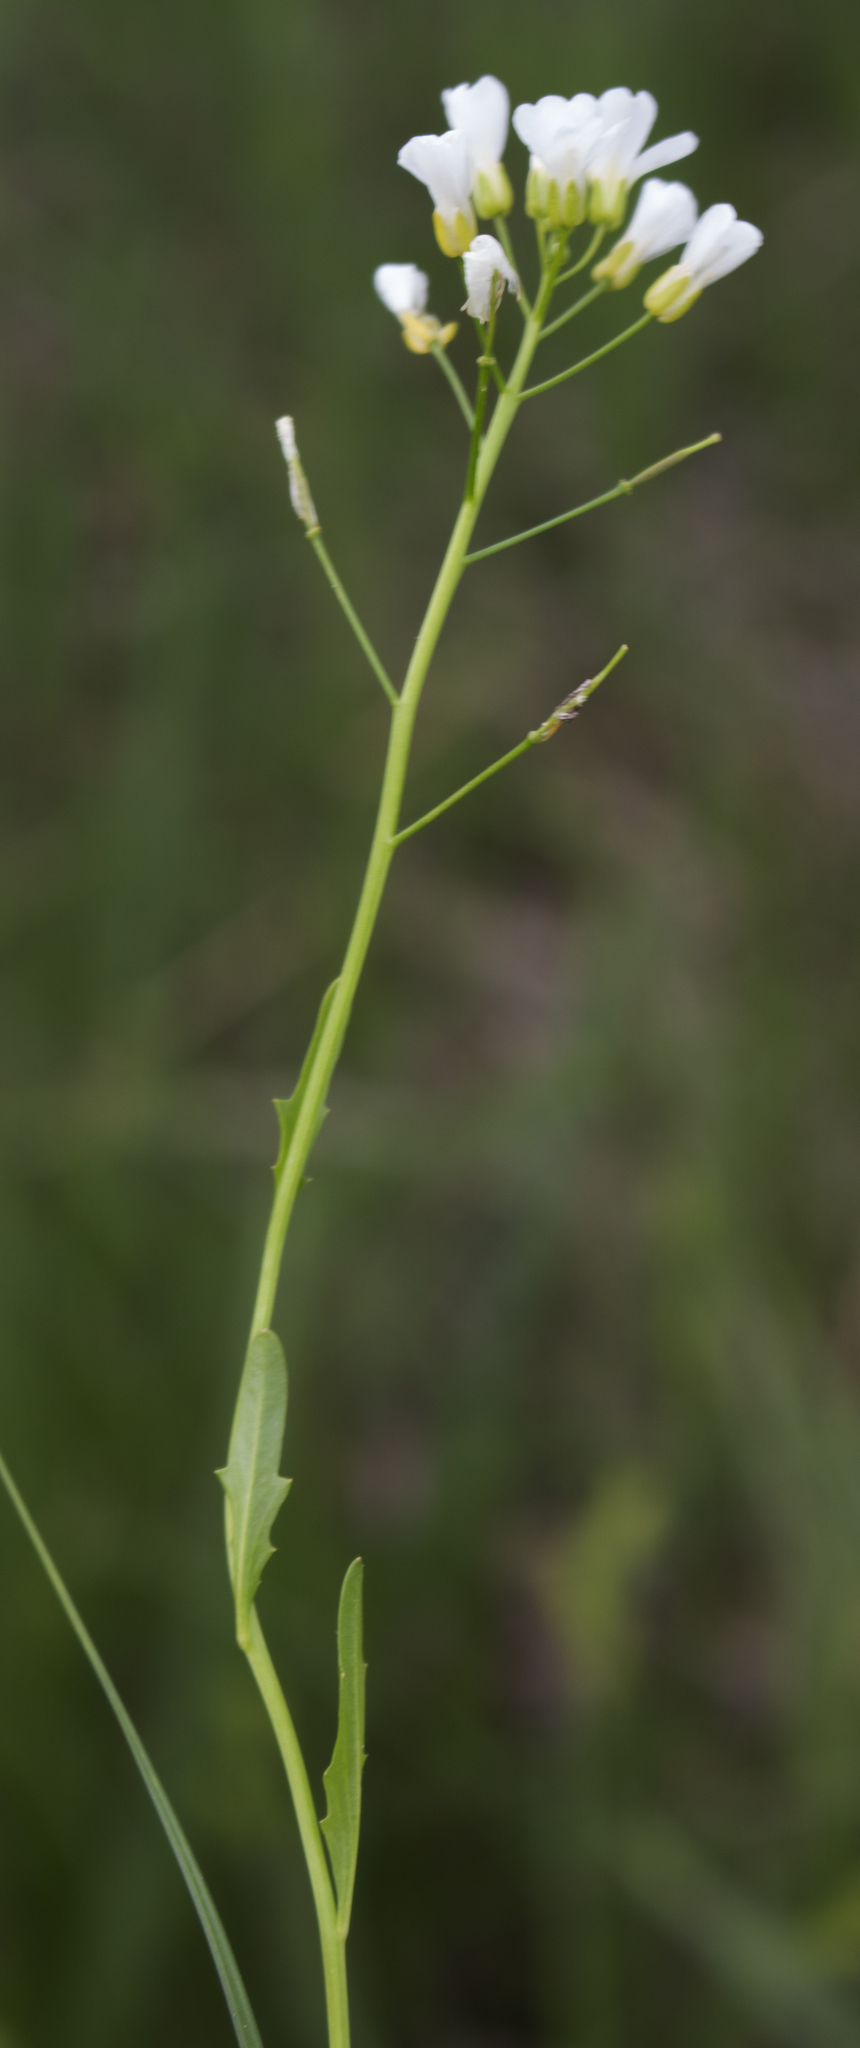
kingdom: Plantae
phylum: Tracheophyta
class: Magnoliopsida
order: Brassicales
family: Brassicaceae
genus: Cardamine
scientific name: Cardamine bulbosa
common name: Spring cress
